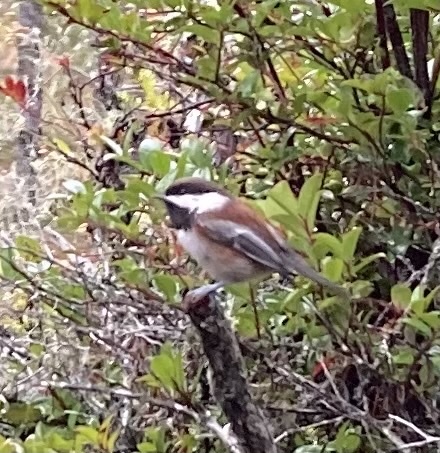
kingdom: Animalia
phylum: Chordata
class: Aves
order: Passeriformes
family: Paridae
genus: Poecile
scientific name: Poecile rufescens
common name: Chestnut-backed chickadee
